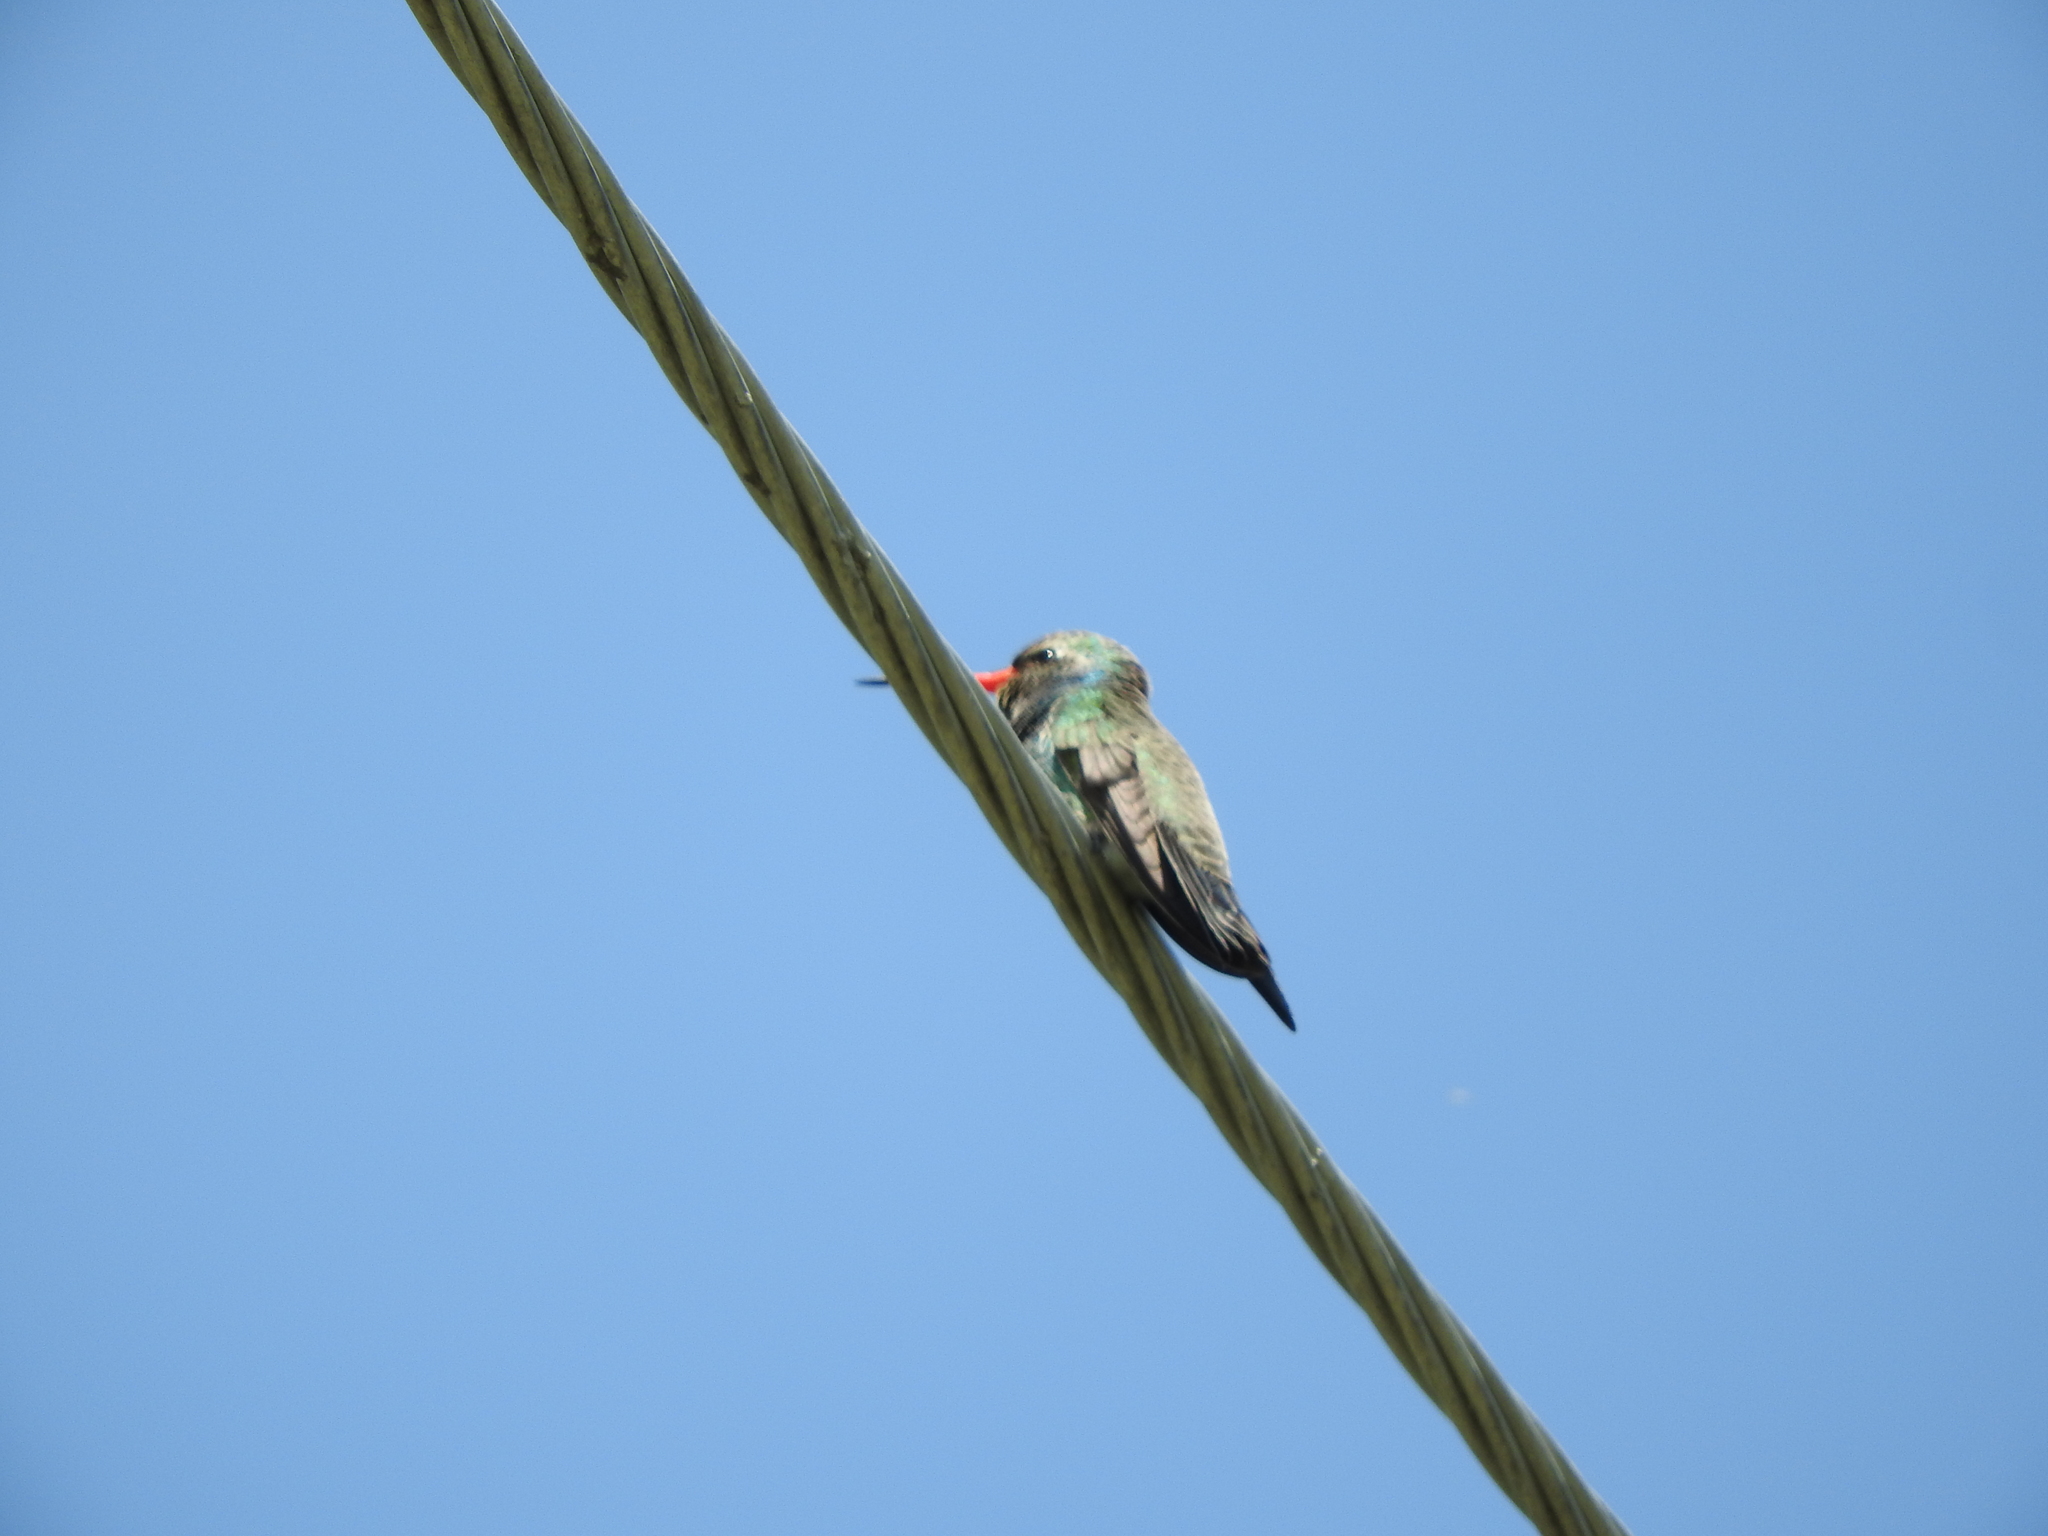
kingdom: Animalia
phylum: Chordata
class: Aves
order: Apodiformes
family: Trochilidae
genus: Cynanthus
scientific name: Cynanthus latirostris
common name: Broad-billed hummingbird
